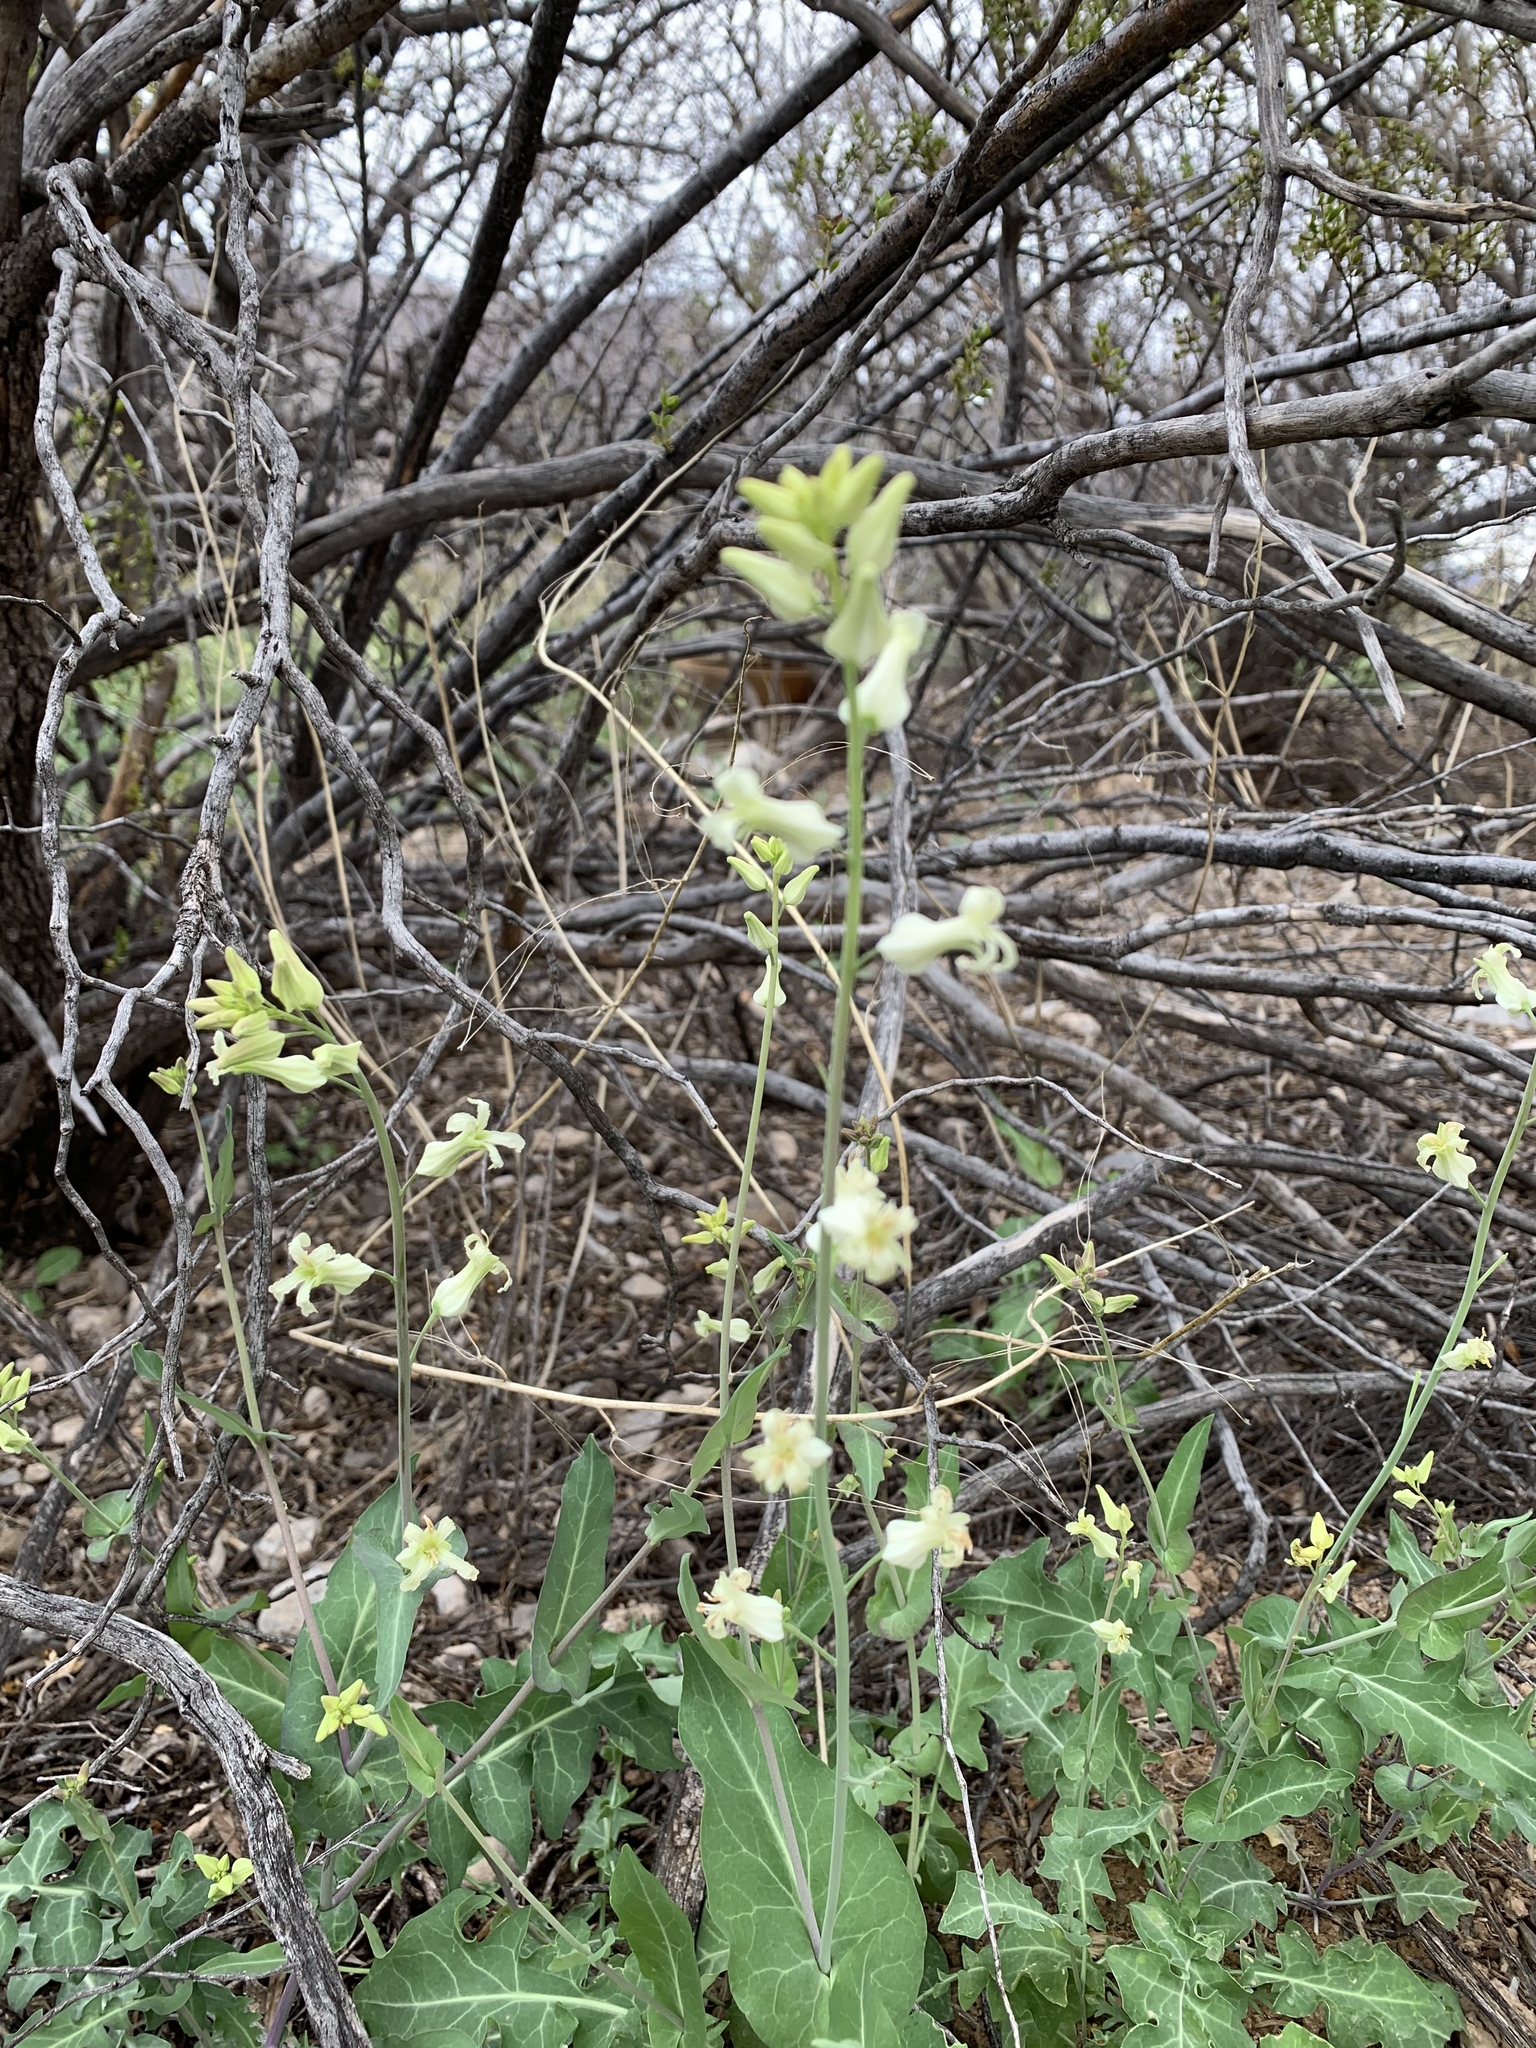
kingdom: Plantae
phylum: Tracheophyta
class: Magnoliopsida
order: Brassicales
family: Brassicaceae
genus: Streptanthus
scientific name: Streptanthus carinatus
